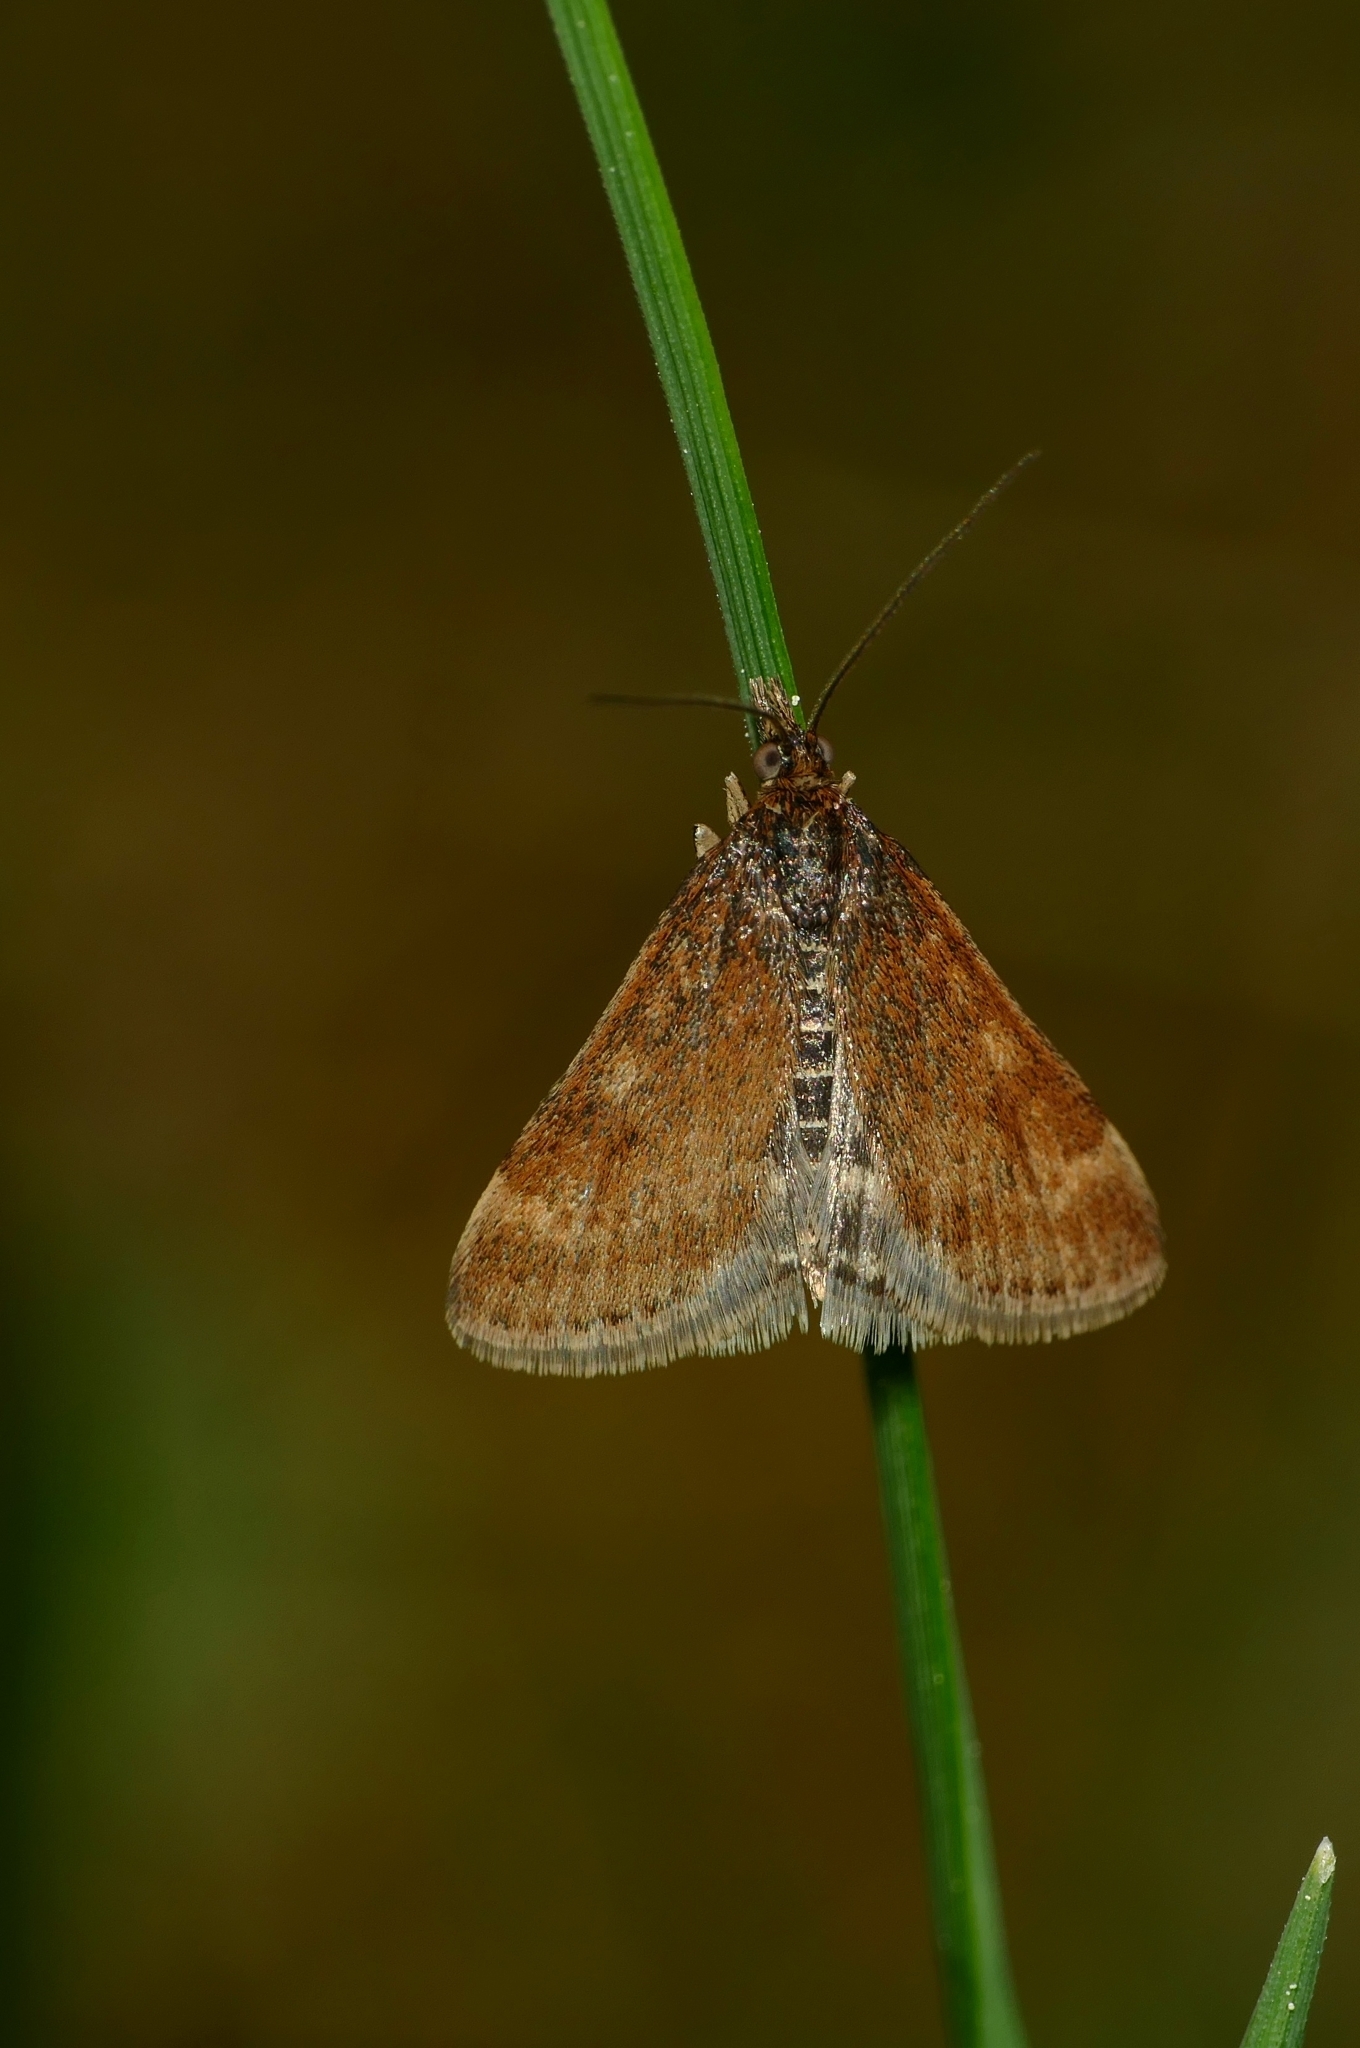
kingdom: Animalia
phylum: Arthropoda
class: Insecta
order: Lepidoptera
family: Crambidae
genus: Pyrausta
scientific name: Pyrausta despicata
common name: Straw-barred pearl
